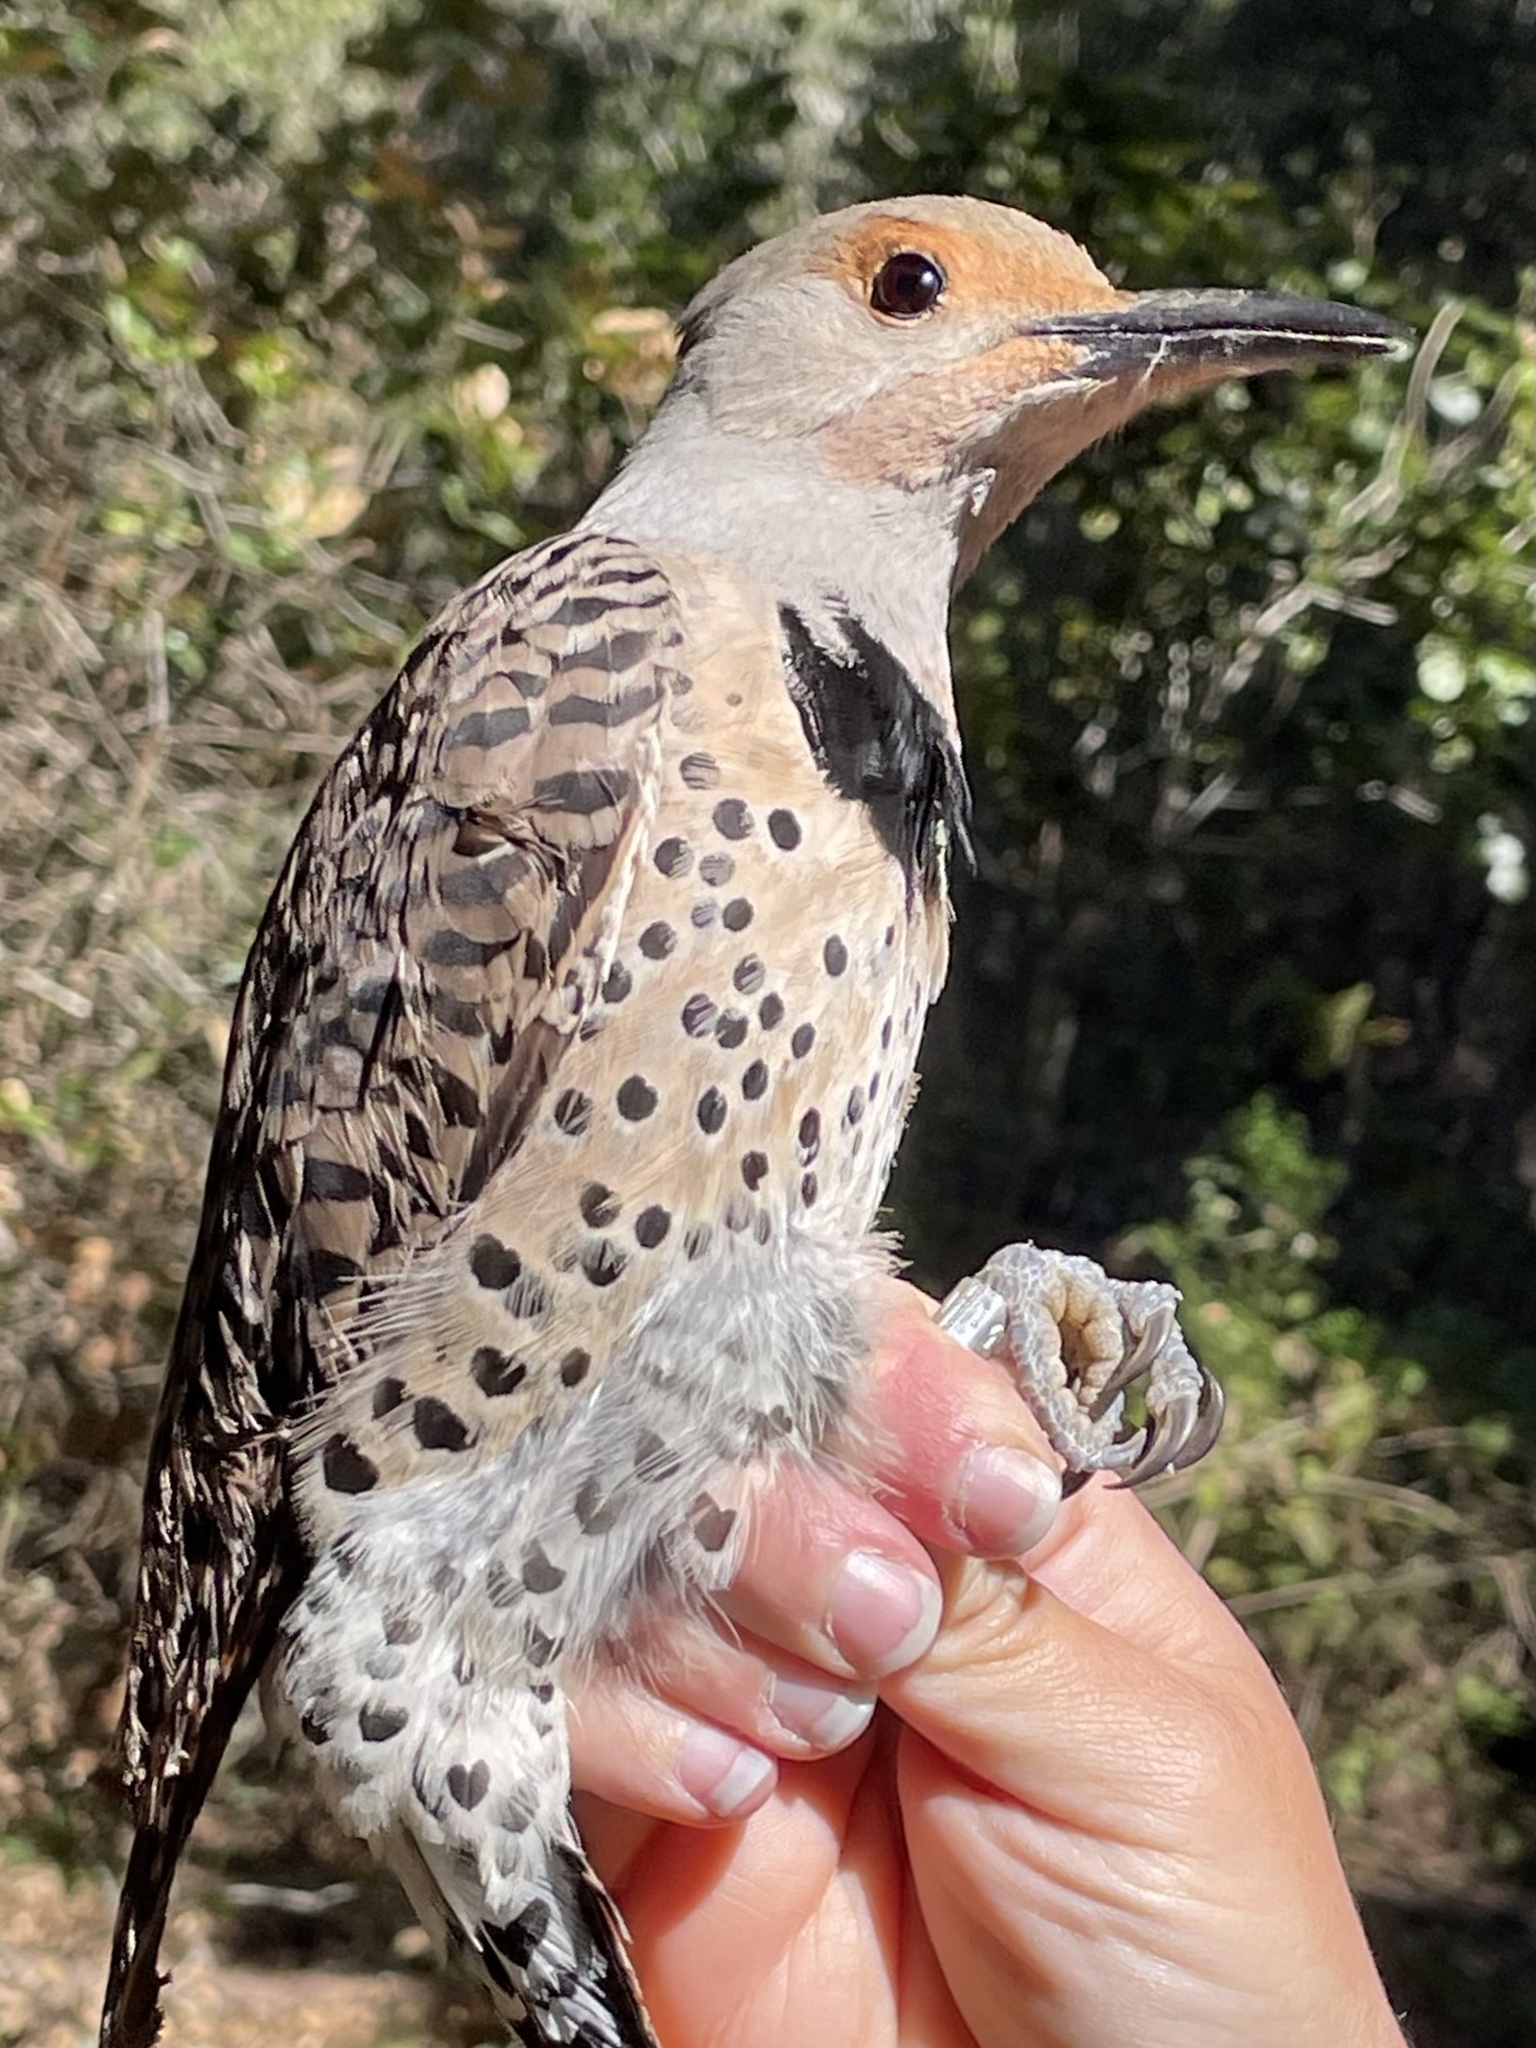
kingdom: Animalia
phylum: Chordata
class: Aves
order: Piciformes
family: Picidae
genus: Colaptes
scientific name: Colaptes auratus
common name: Northern flicker
